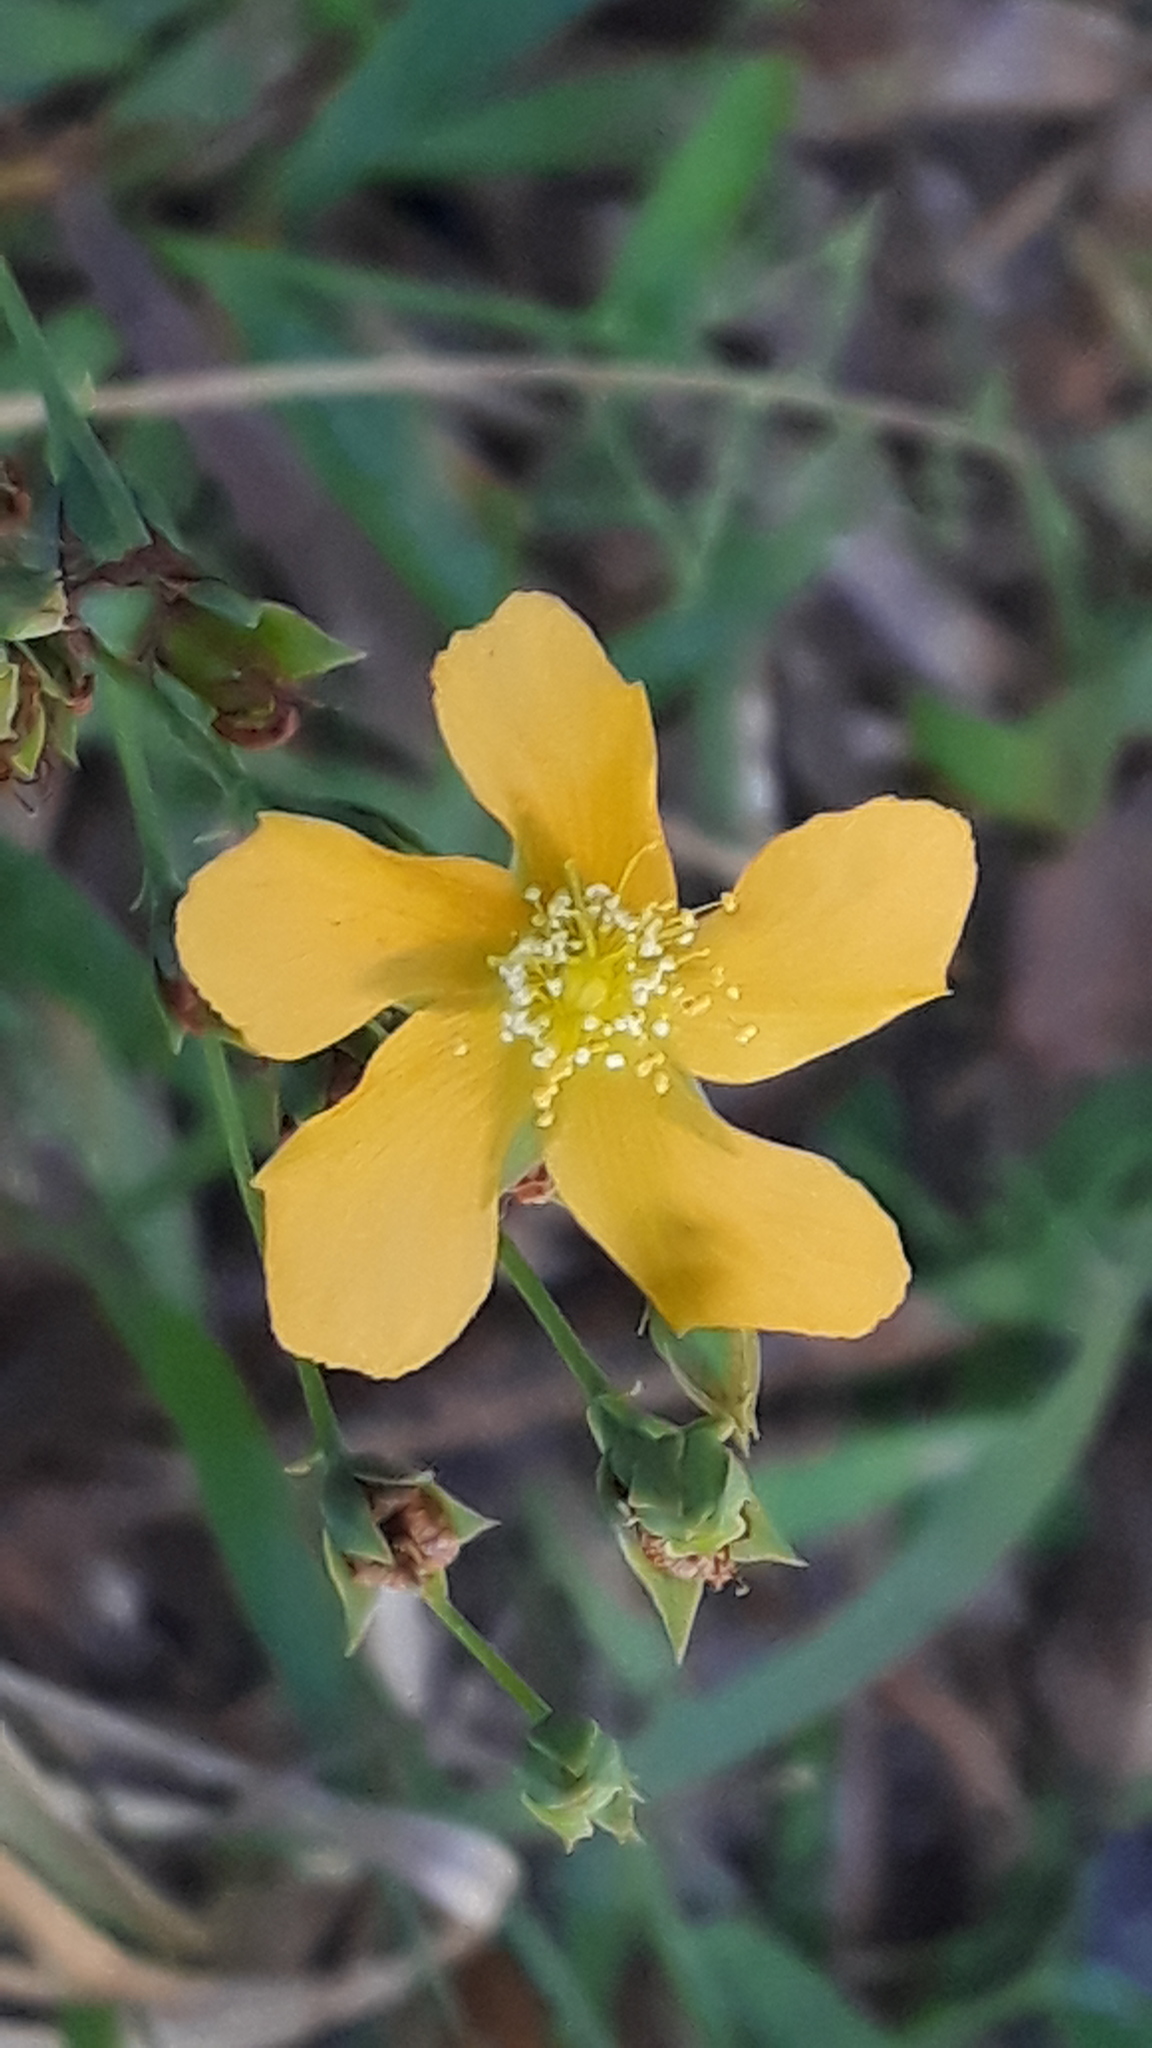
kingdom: Plantae
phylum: Tracheophyta
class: Magnoliopsida
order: Malpighiales
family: Hypericaceae
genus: Hypericum
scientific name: Hypericum connatum
